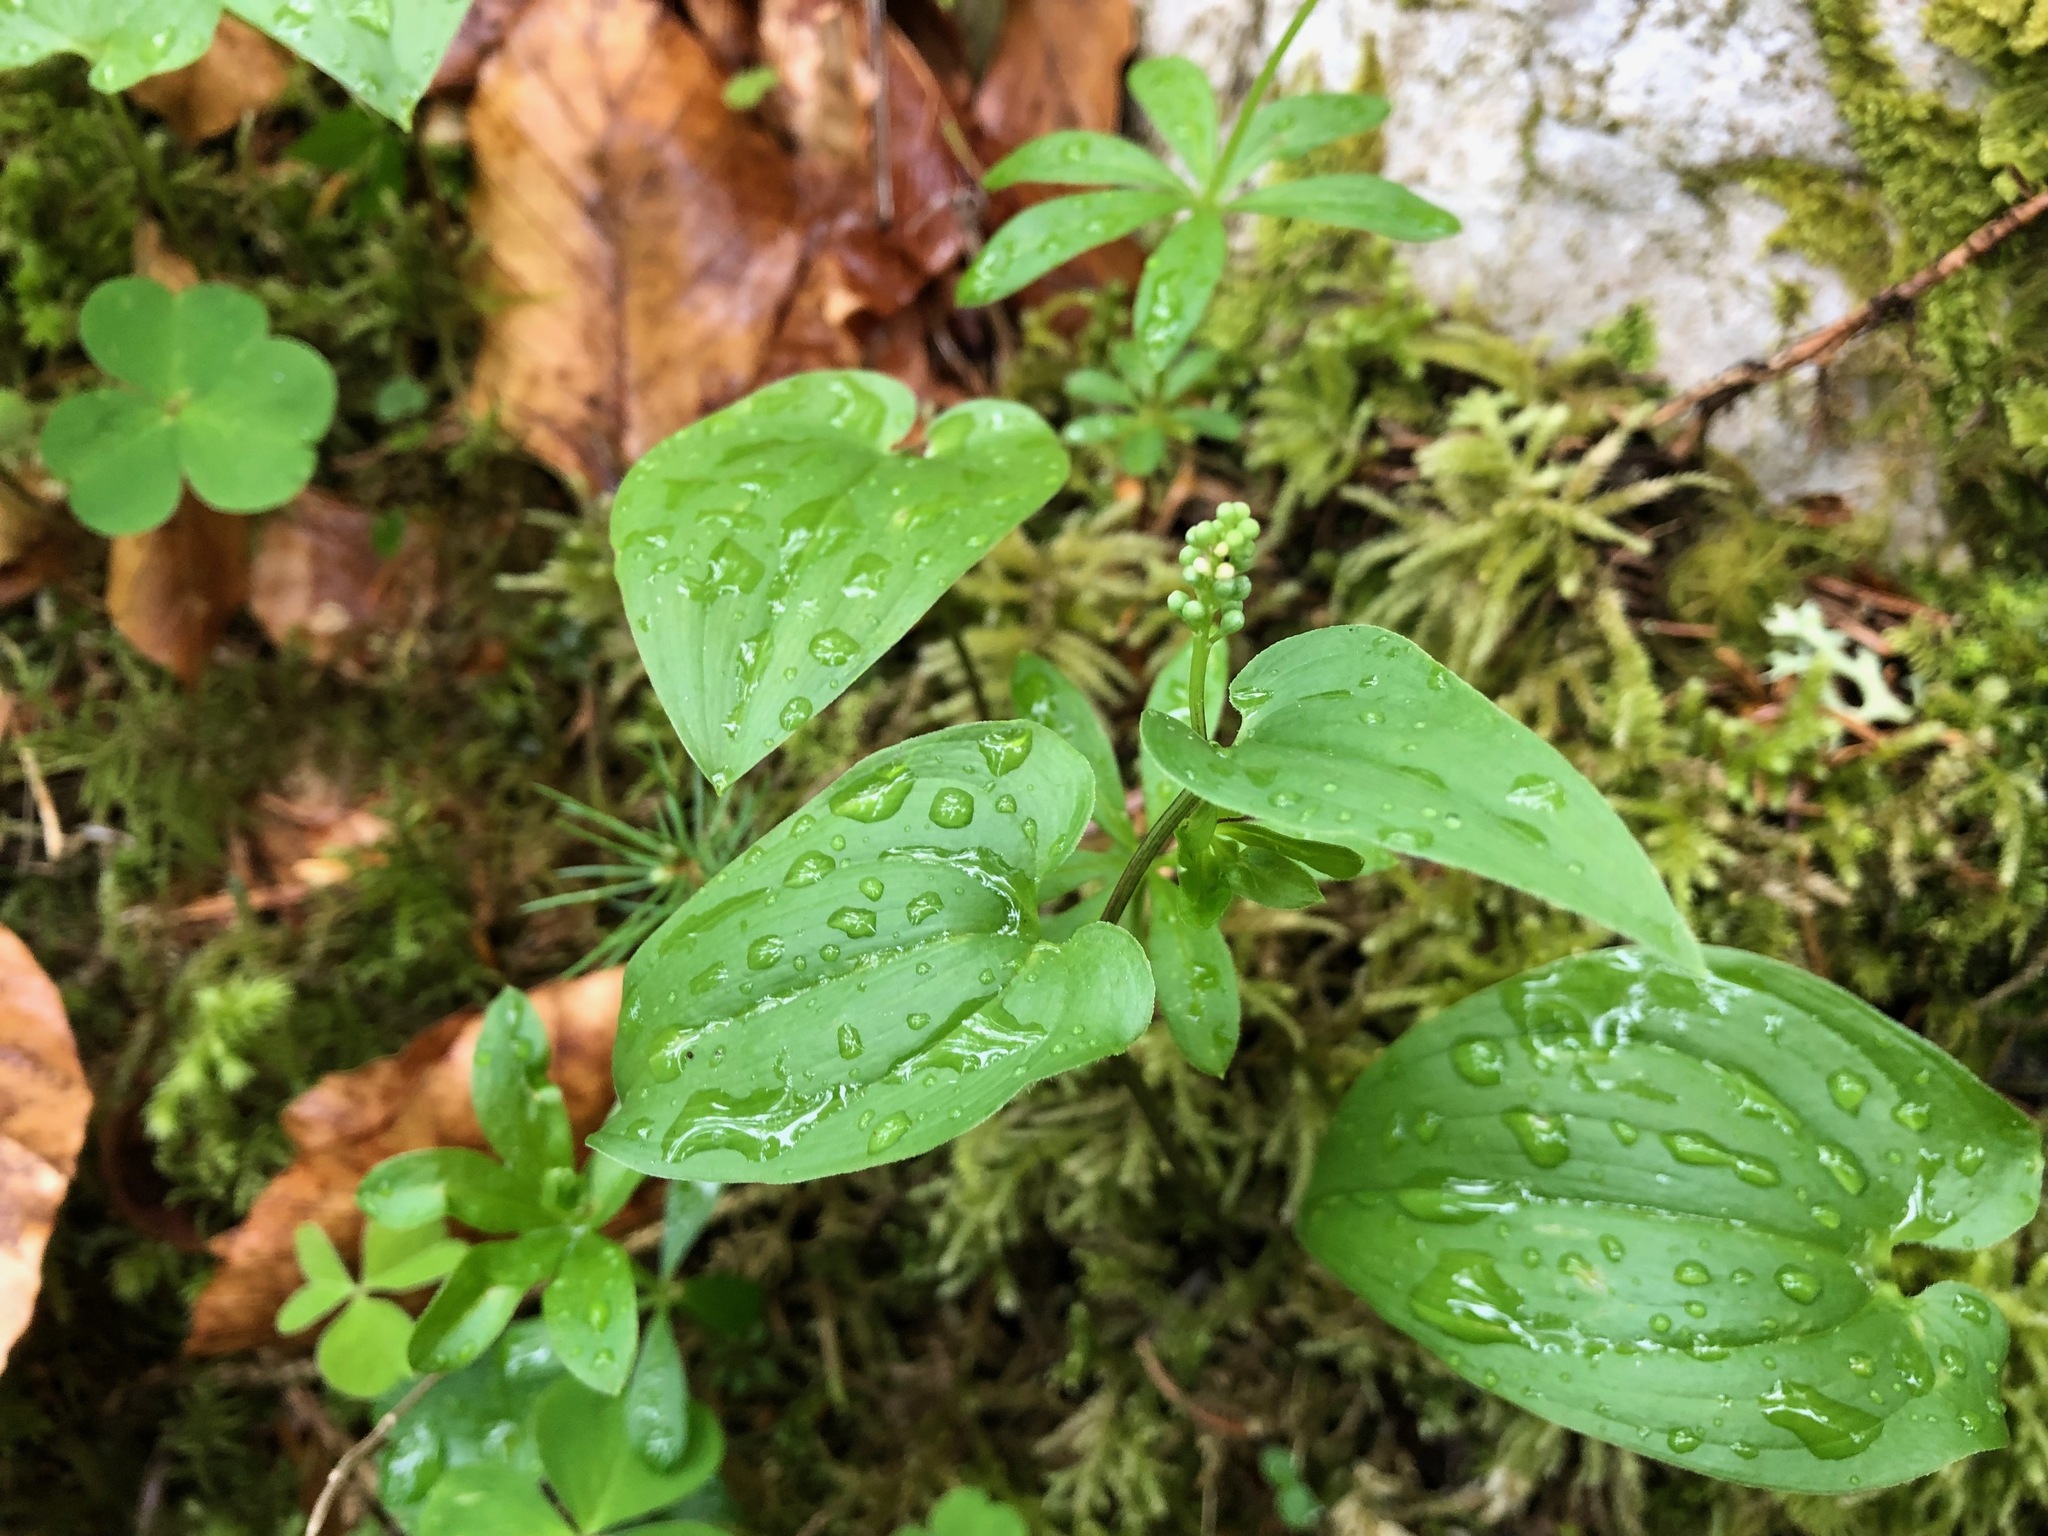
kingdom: Plantae
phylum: Tracheophyta
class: Liliopsida
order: Asparagales
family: Asparagaceae
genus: Maianthemum
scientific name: Maianthemum bifolium
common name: May lily
